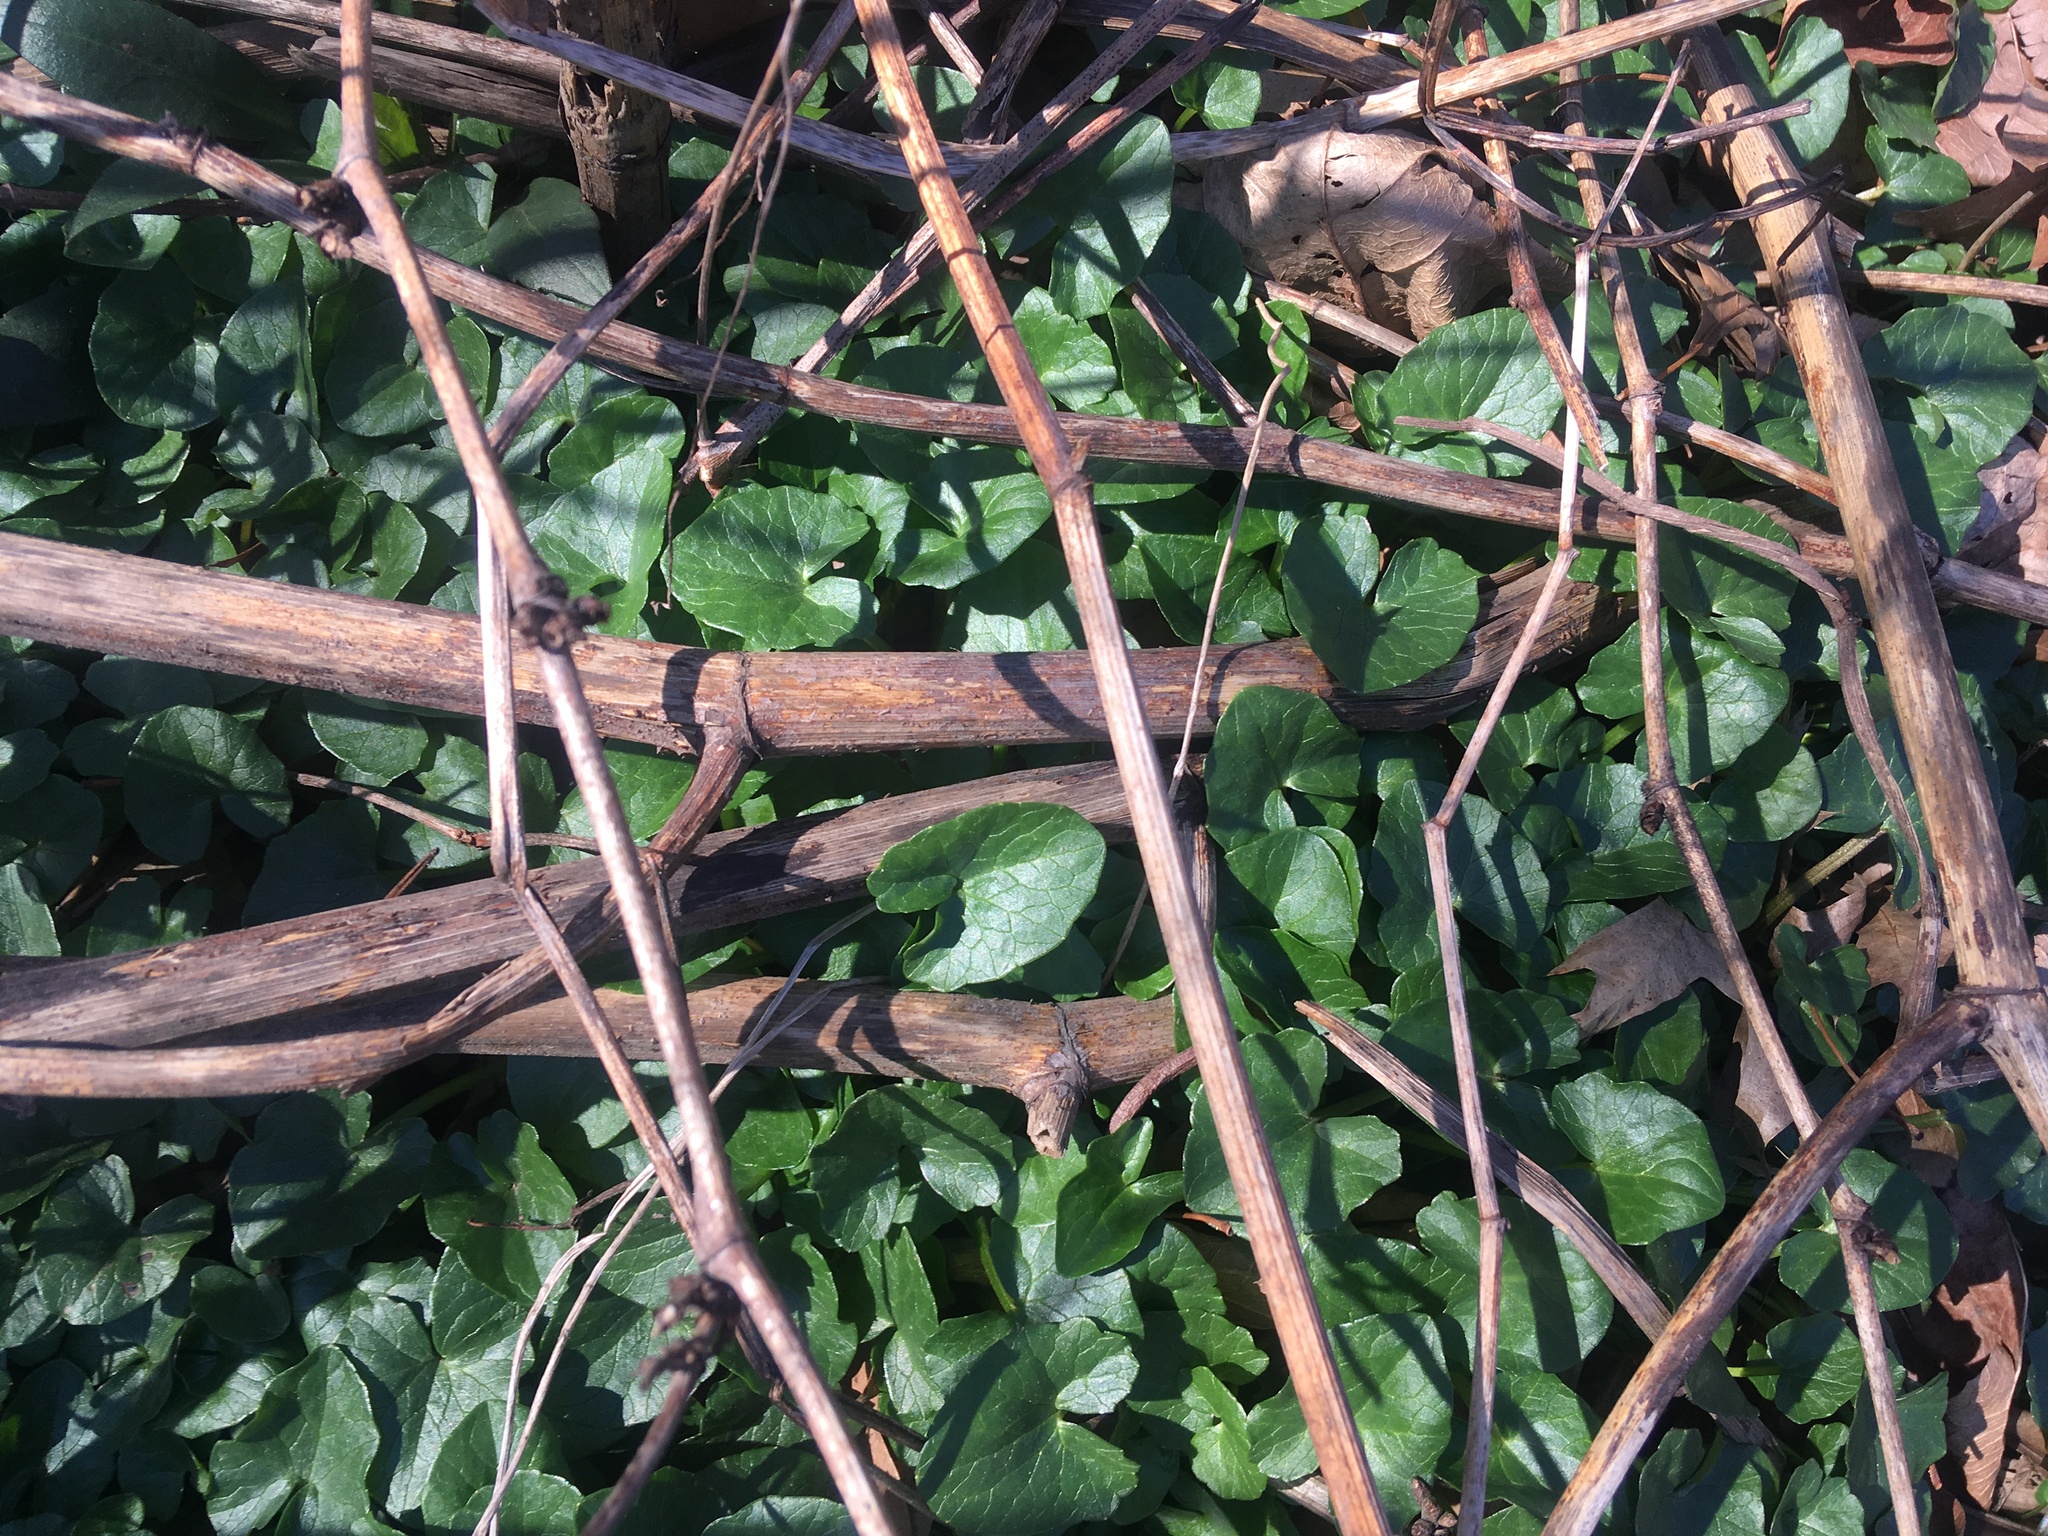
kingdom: Plantae
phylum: Tracheophyta
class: Magnoliopsida
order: Ranunculales
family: Ranunculaceae
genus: Ficaria
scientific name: Ficaria verna
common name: Lesser celandine
